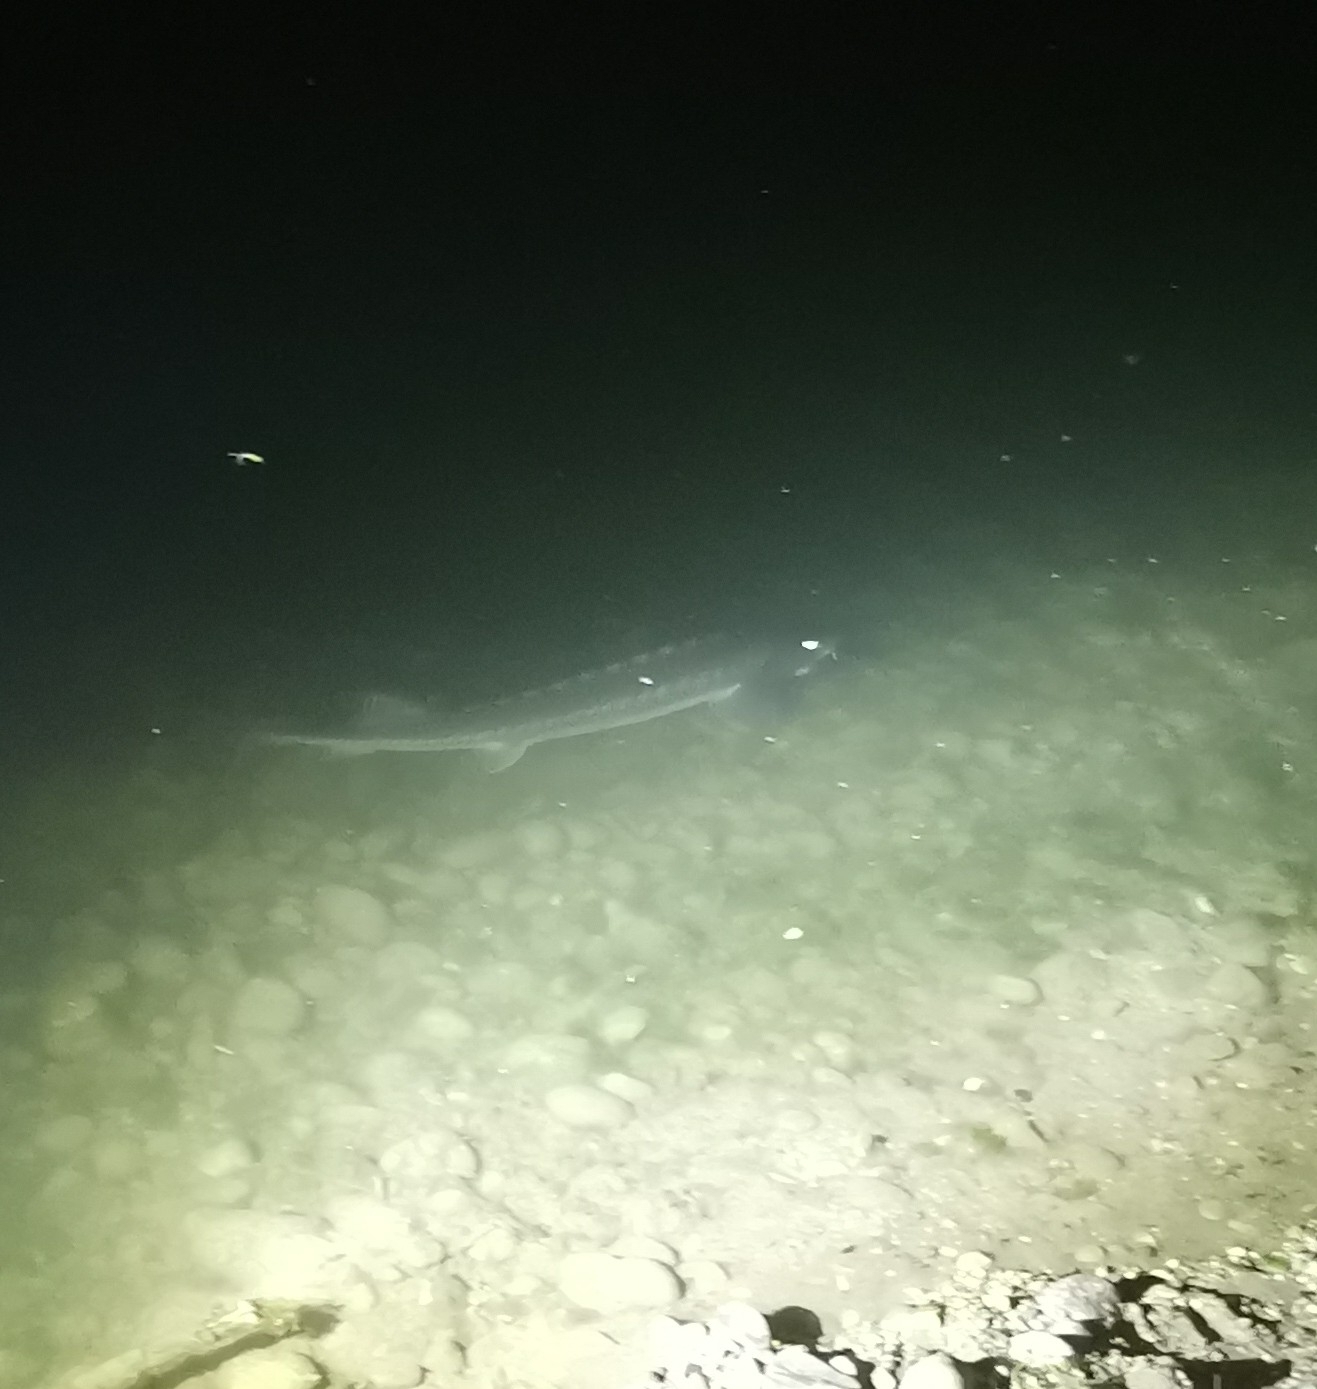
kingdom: Animalia
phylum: Chordata
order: Acipenseriformes
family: Acipenseridae
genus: Acipenser
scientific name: Acipenser naccarii
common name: Adriatic sturgeon
